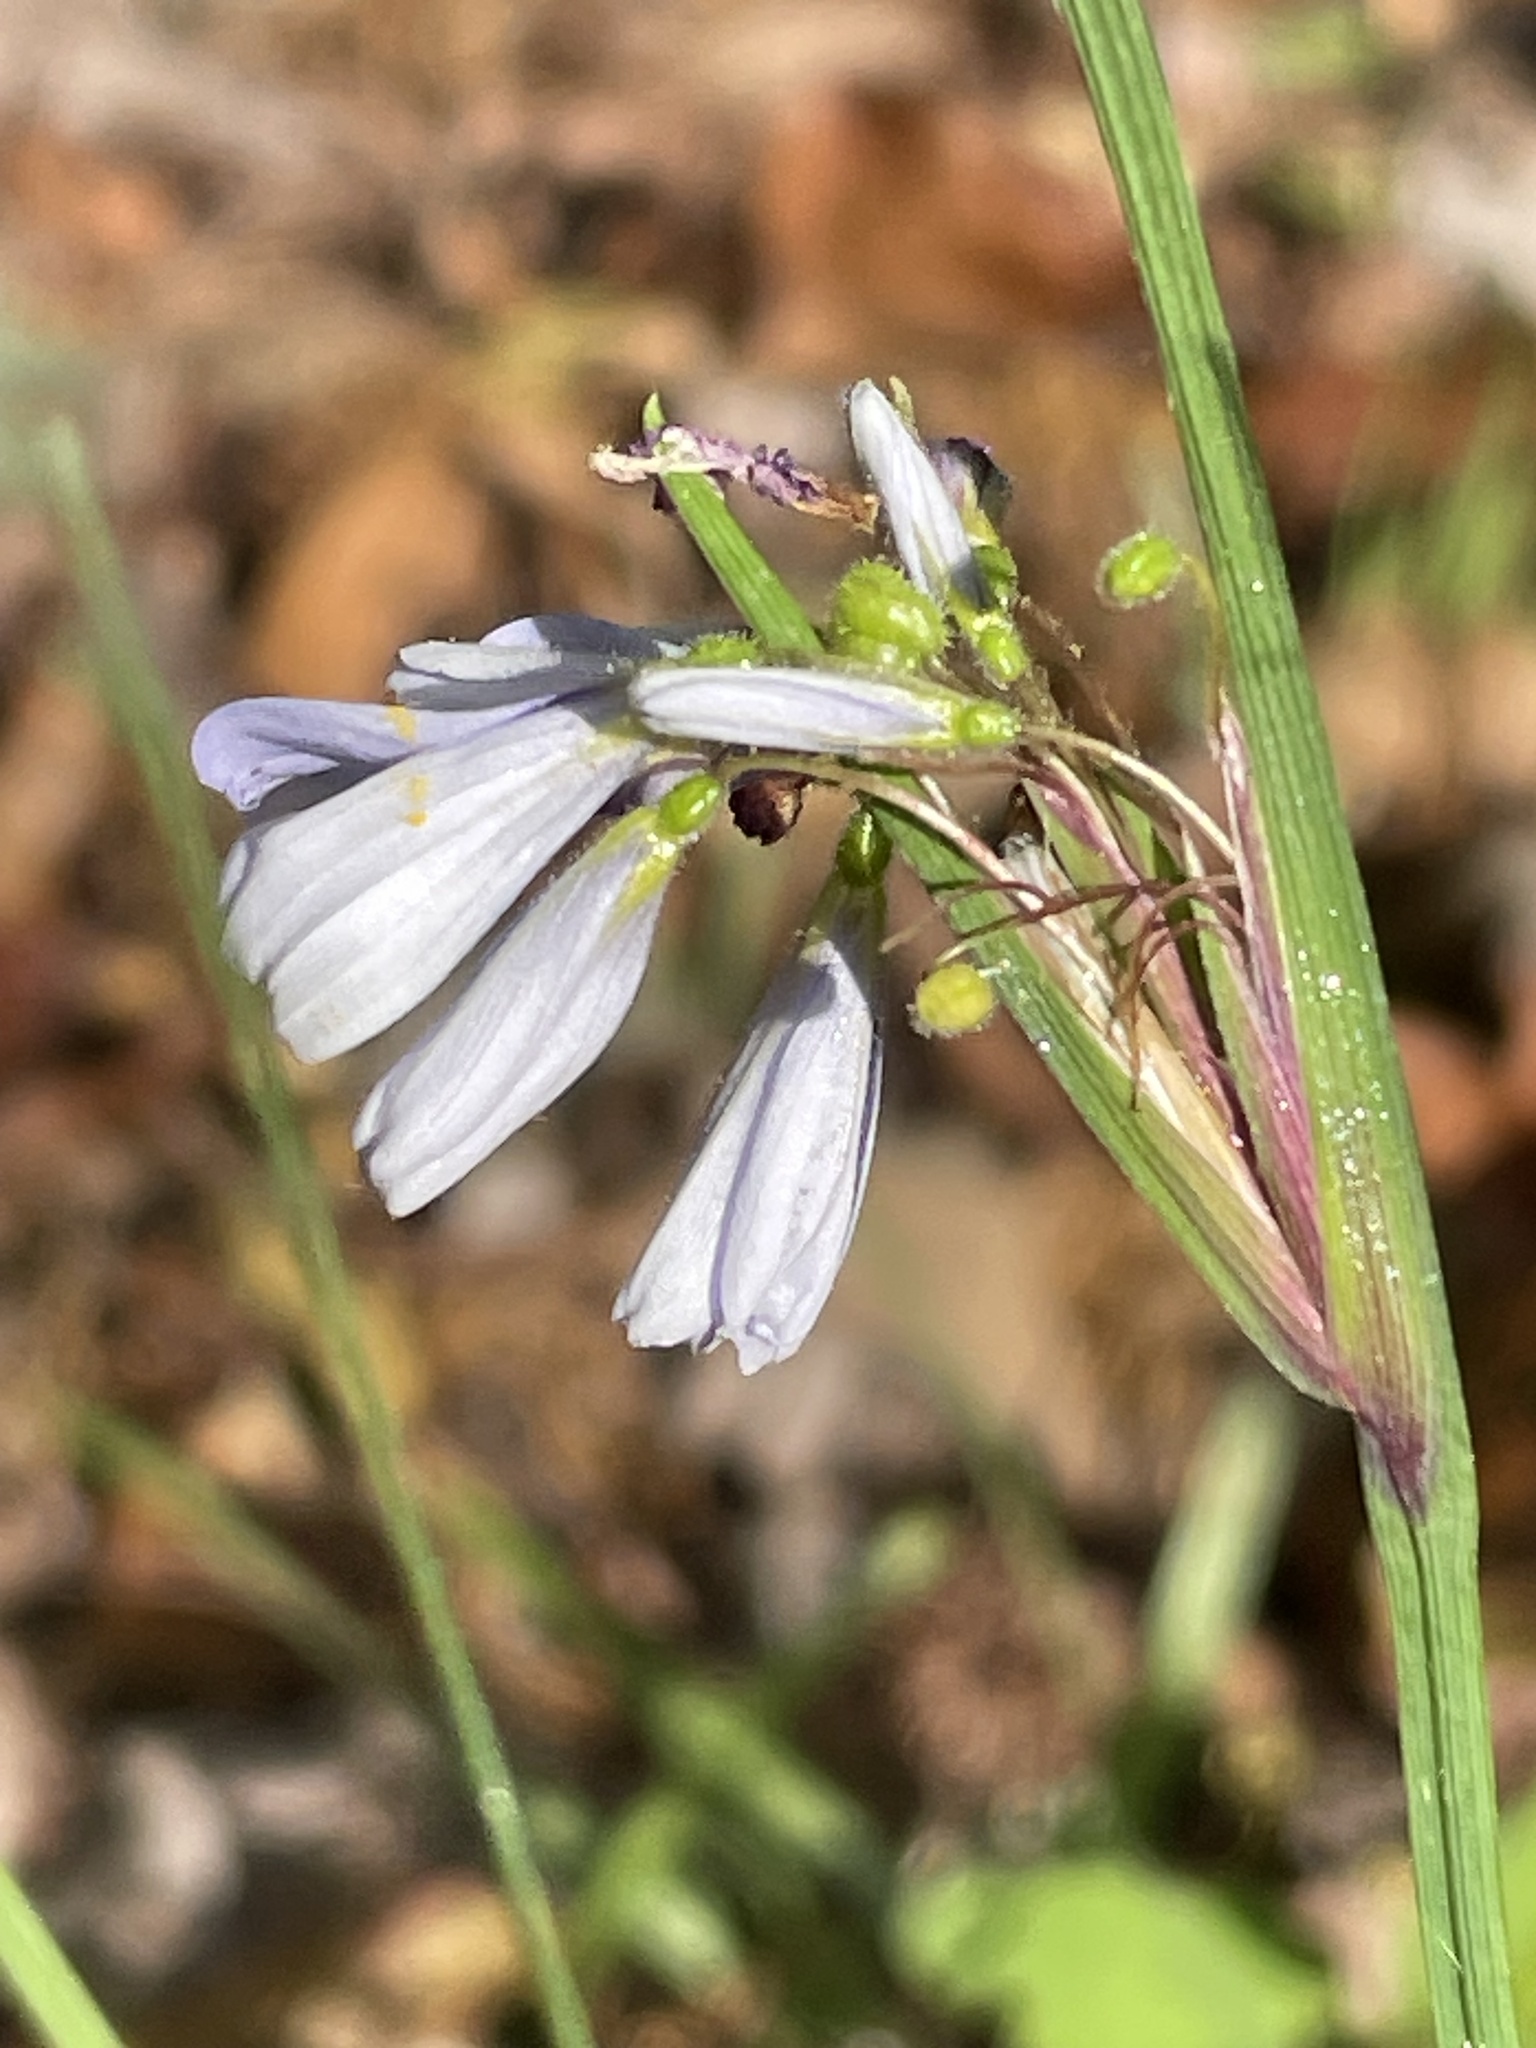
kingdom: Plantae
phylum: Tracheophyta
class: Liliopsida
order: Asparagales
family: Iridaceae
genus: Sisyrinchium
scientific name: Sisyrinchium albidum
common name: Pale blue-eyed-grass
